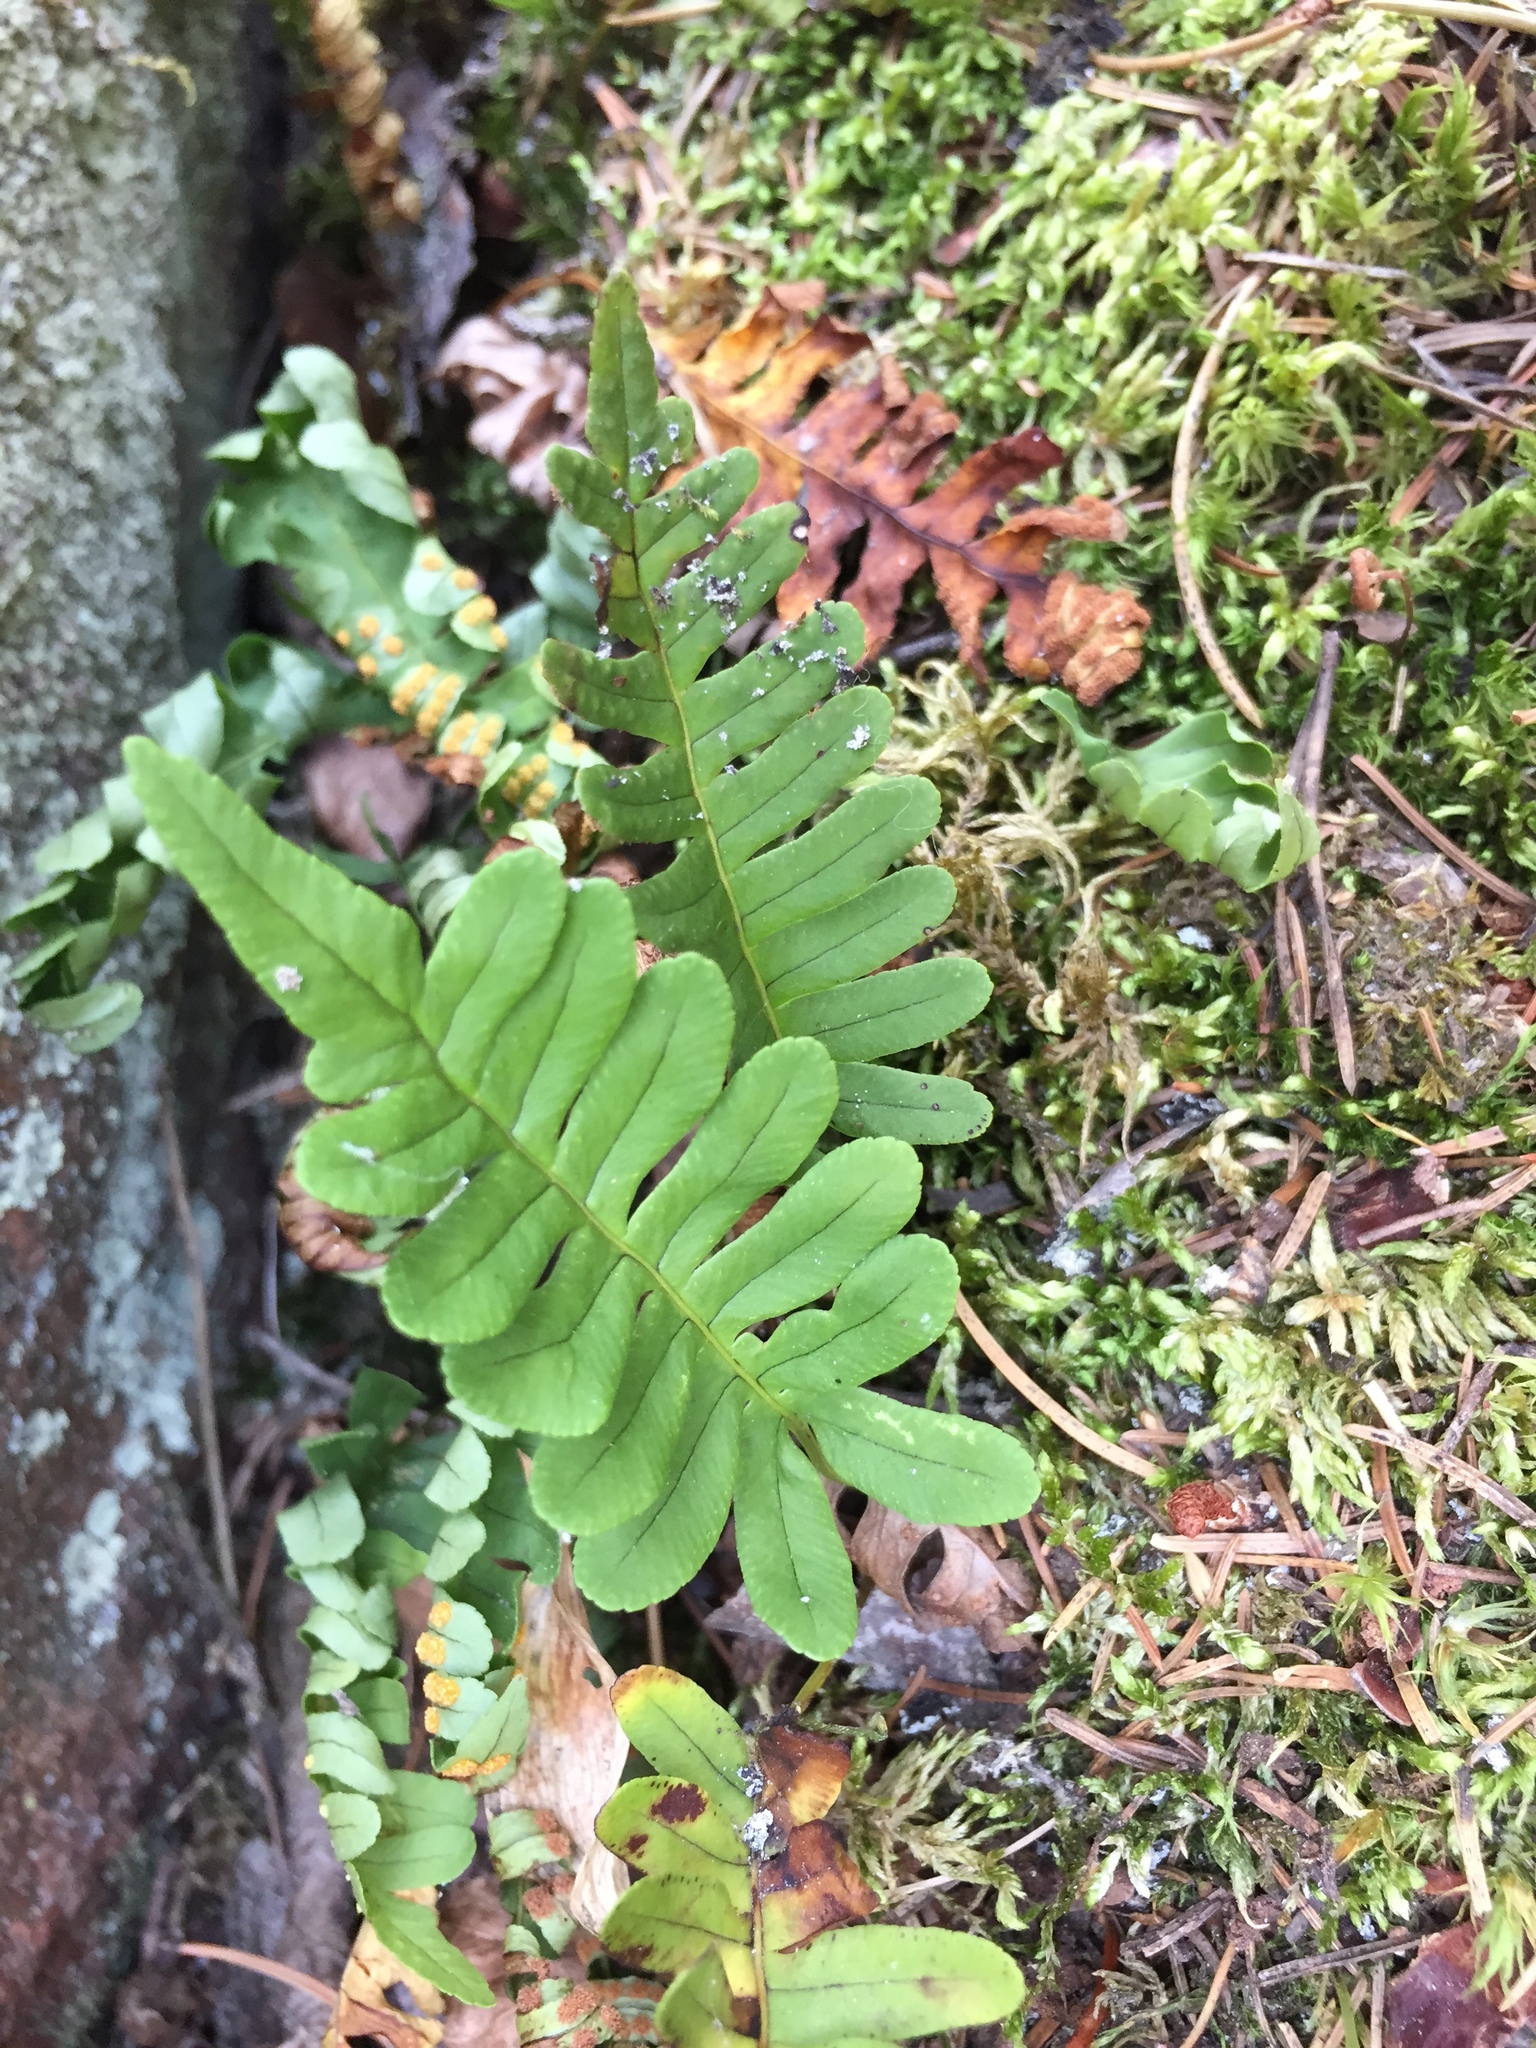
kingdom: Plantae
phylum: Tracheophyta
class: Polypodiopsida
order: Polypodiales
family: Polypodiaceae
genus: Polypodium
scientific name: Polypodium virginianum
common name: American wall fern
